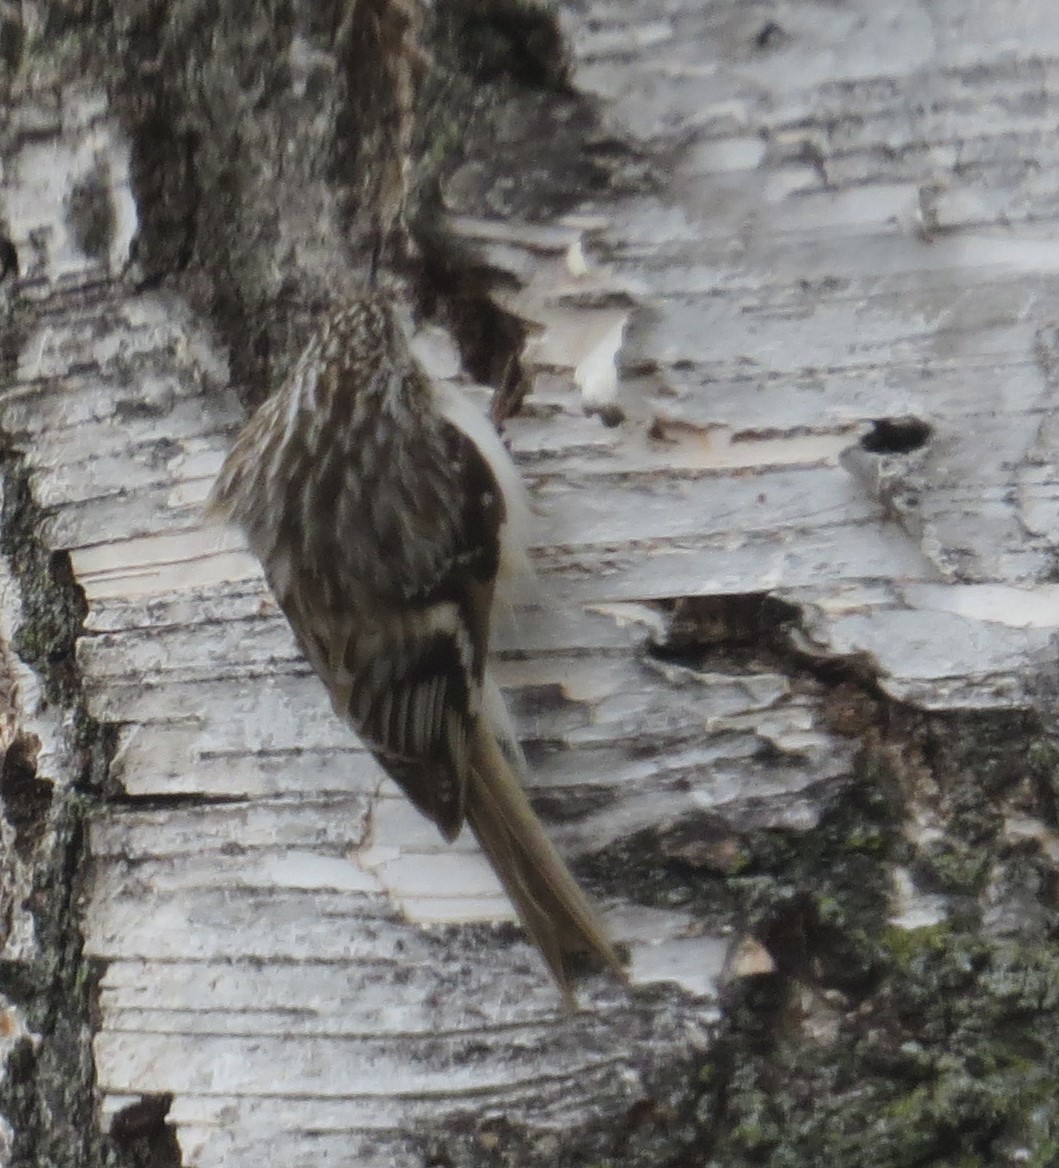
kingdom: Animalia
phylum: Chordata
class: Aves
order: Passeriformes
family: Certhiidae
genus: Certhia
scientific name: Certhia americana
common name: Brown creeper
